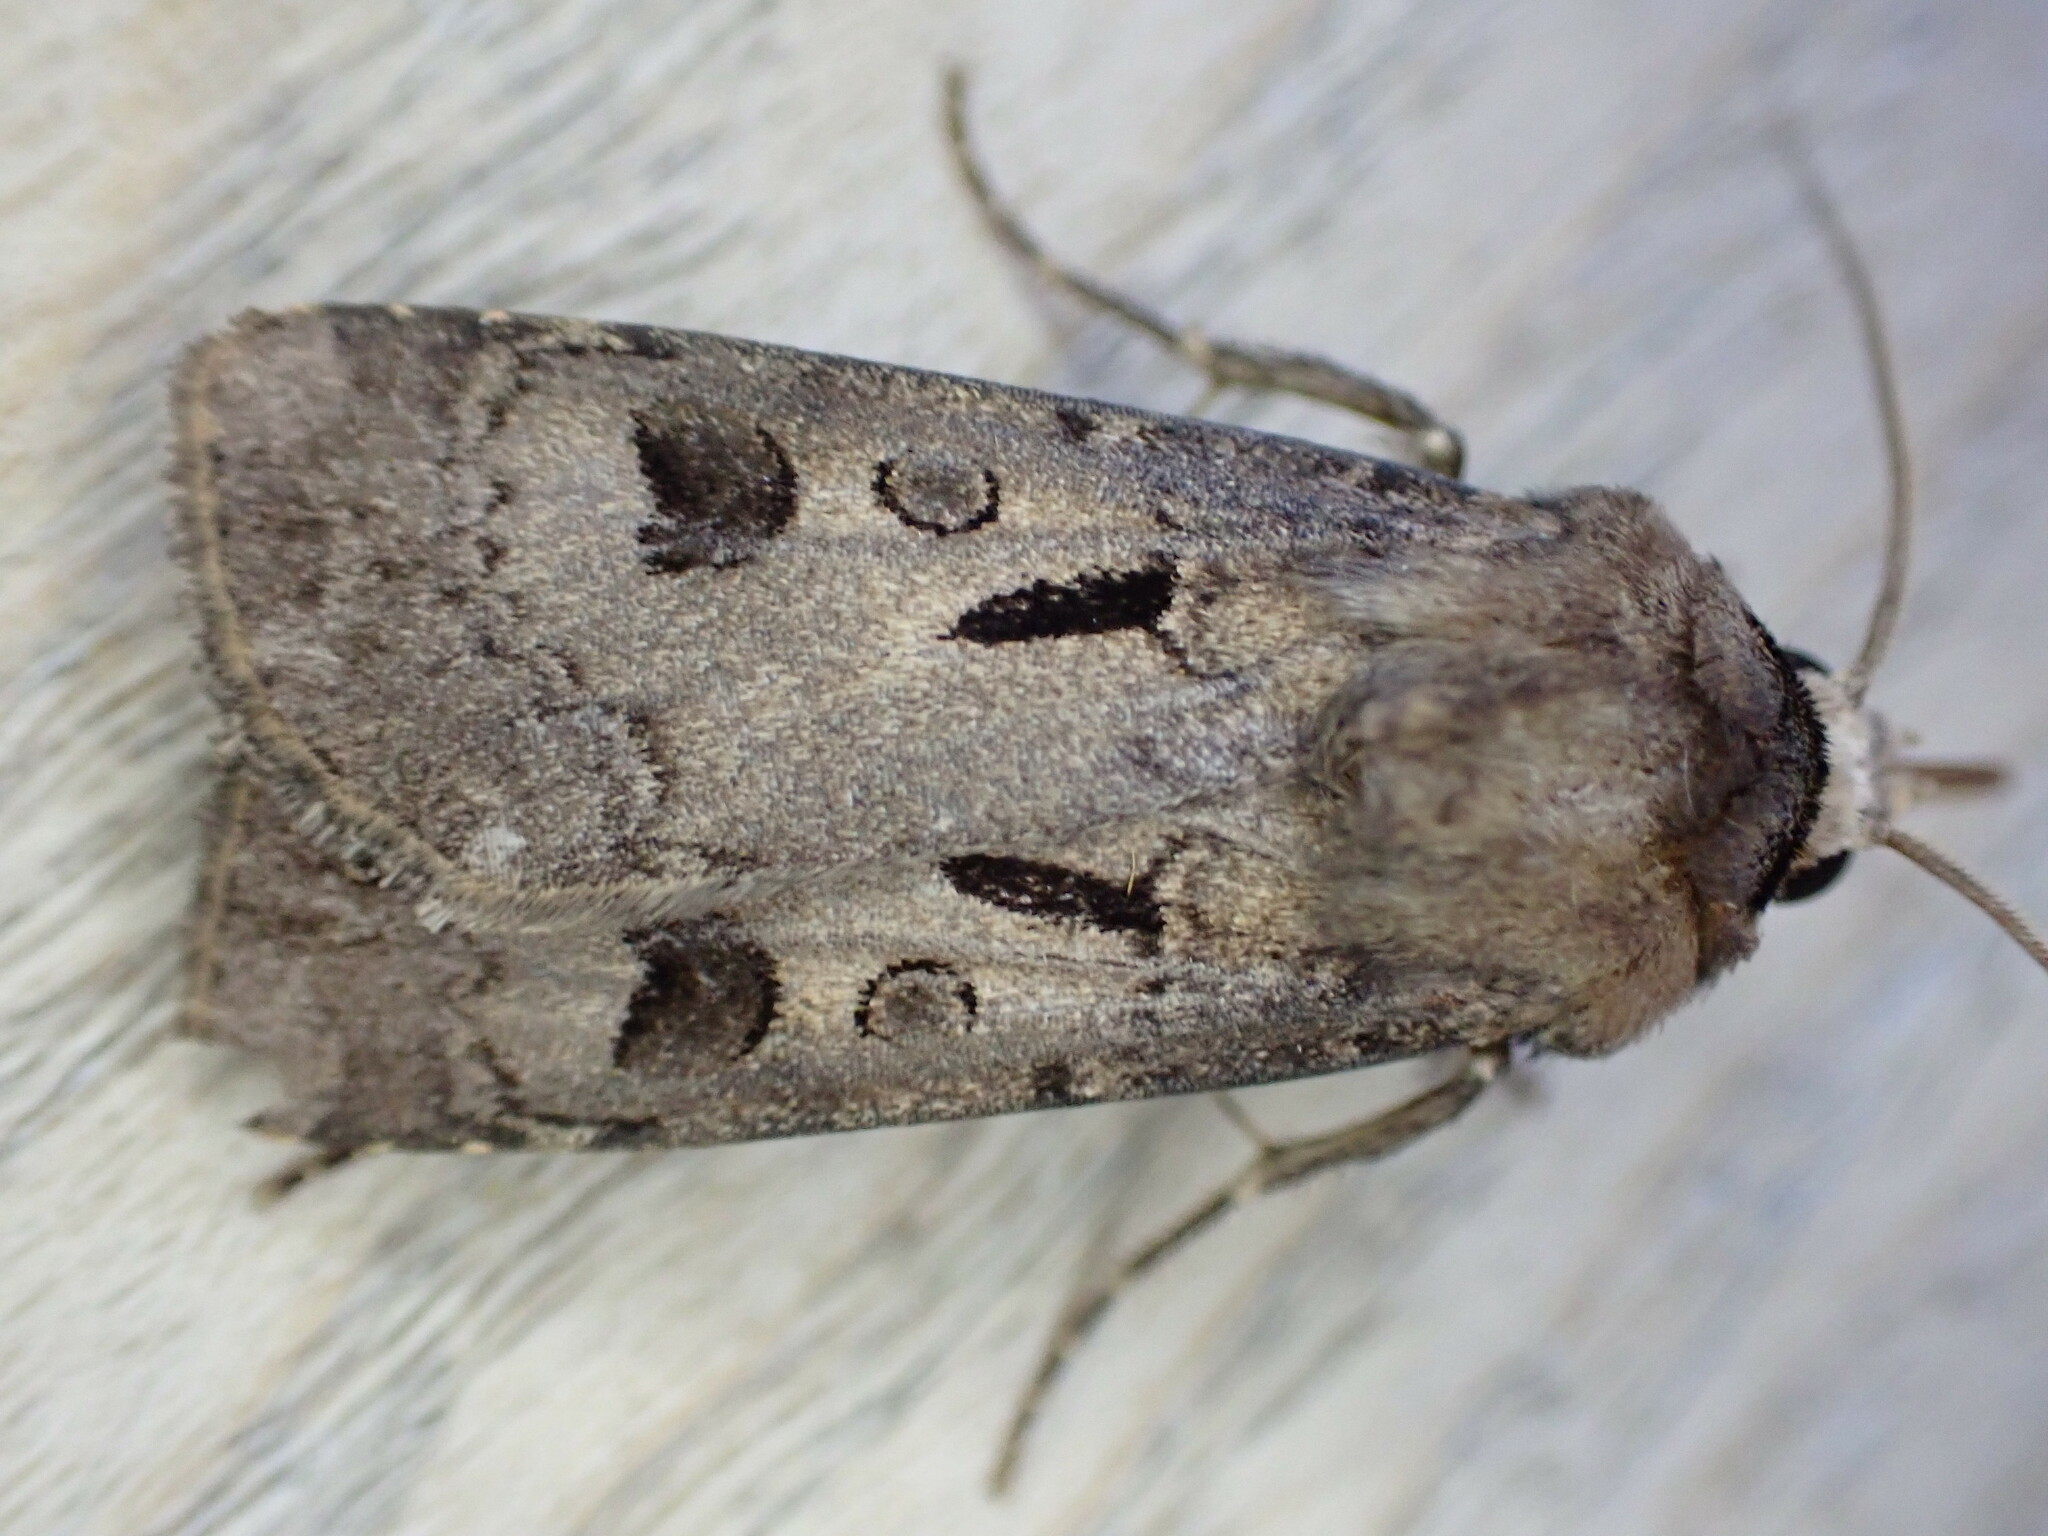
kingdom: Animalia
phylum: Arthropoda
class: Insecta
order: Lepidoptera
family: Noctuidae
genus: Agrotis
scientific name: Agrotis exclamationis
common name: Heart and dart
